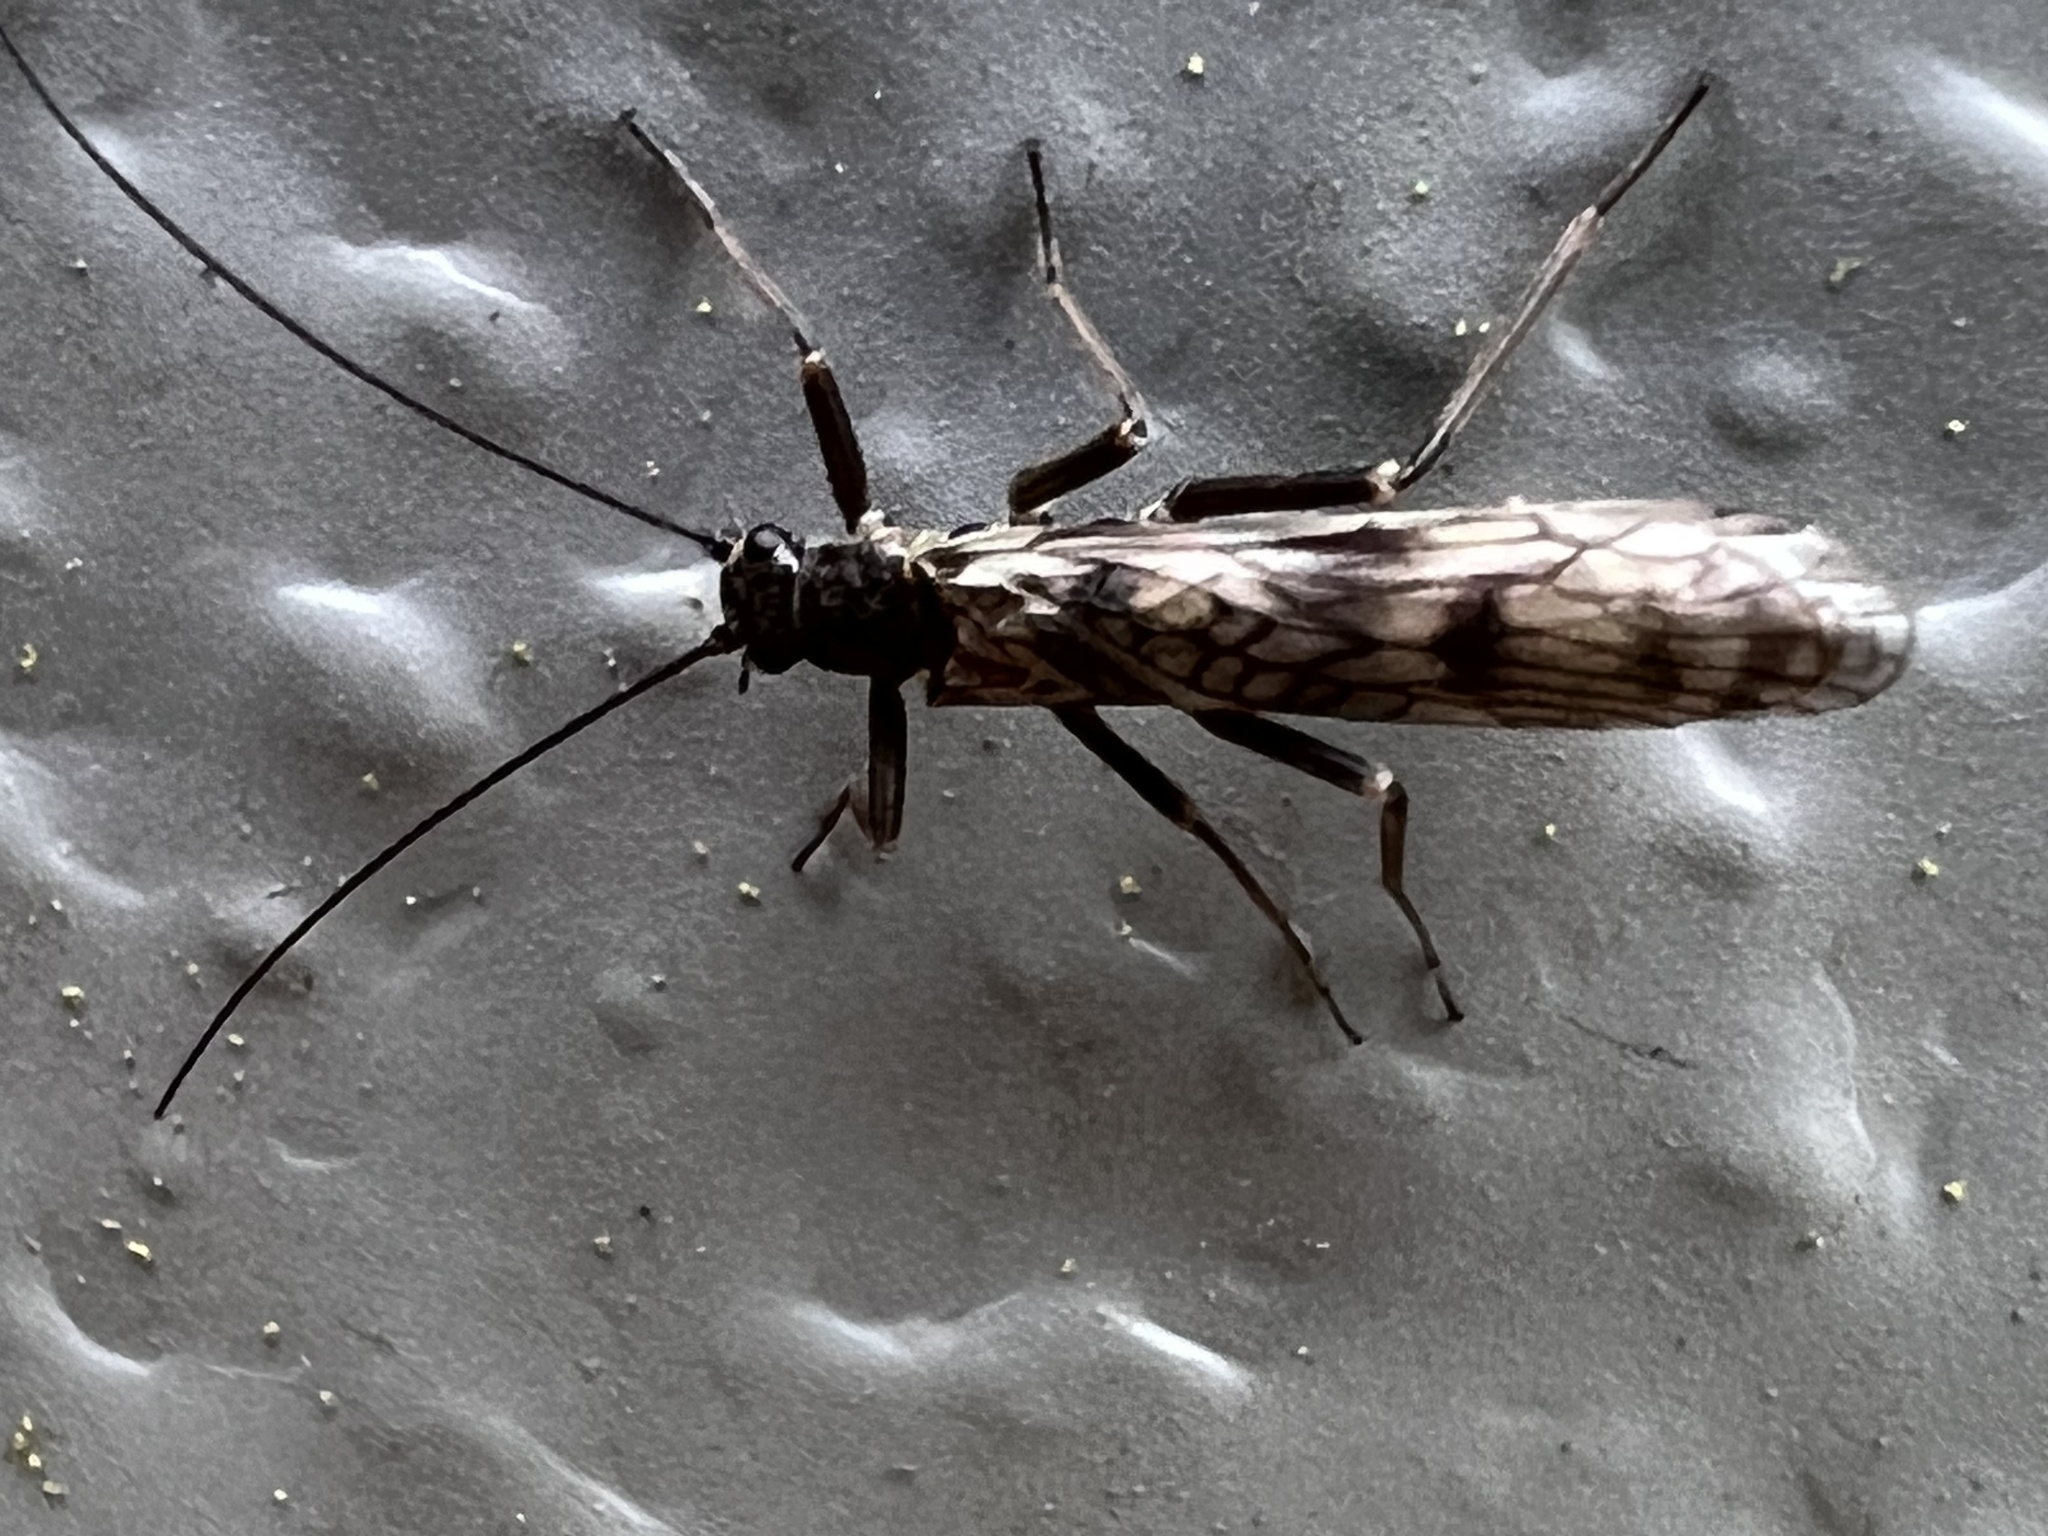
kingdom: Animalia
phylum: Arthropoda
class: Insecta
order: Plecoptera
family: Nemouridae
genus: Zapada
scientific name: Zapada cinctipes
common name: Common forestfly
